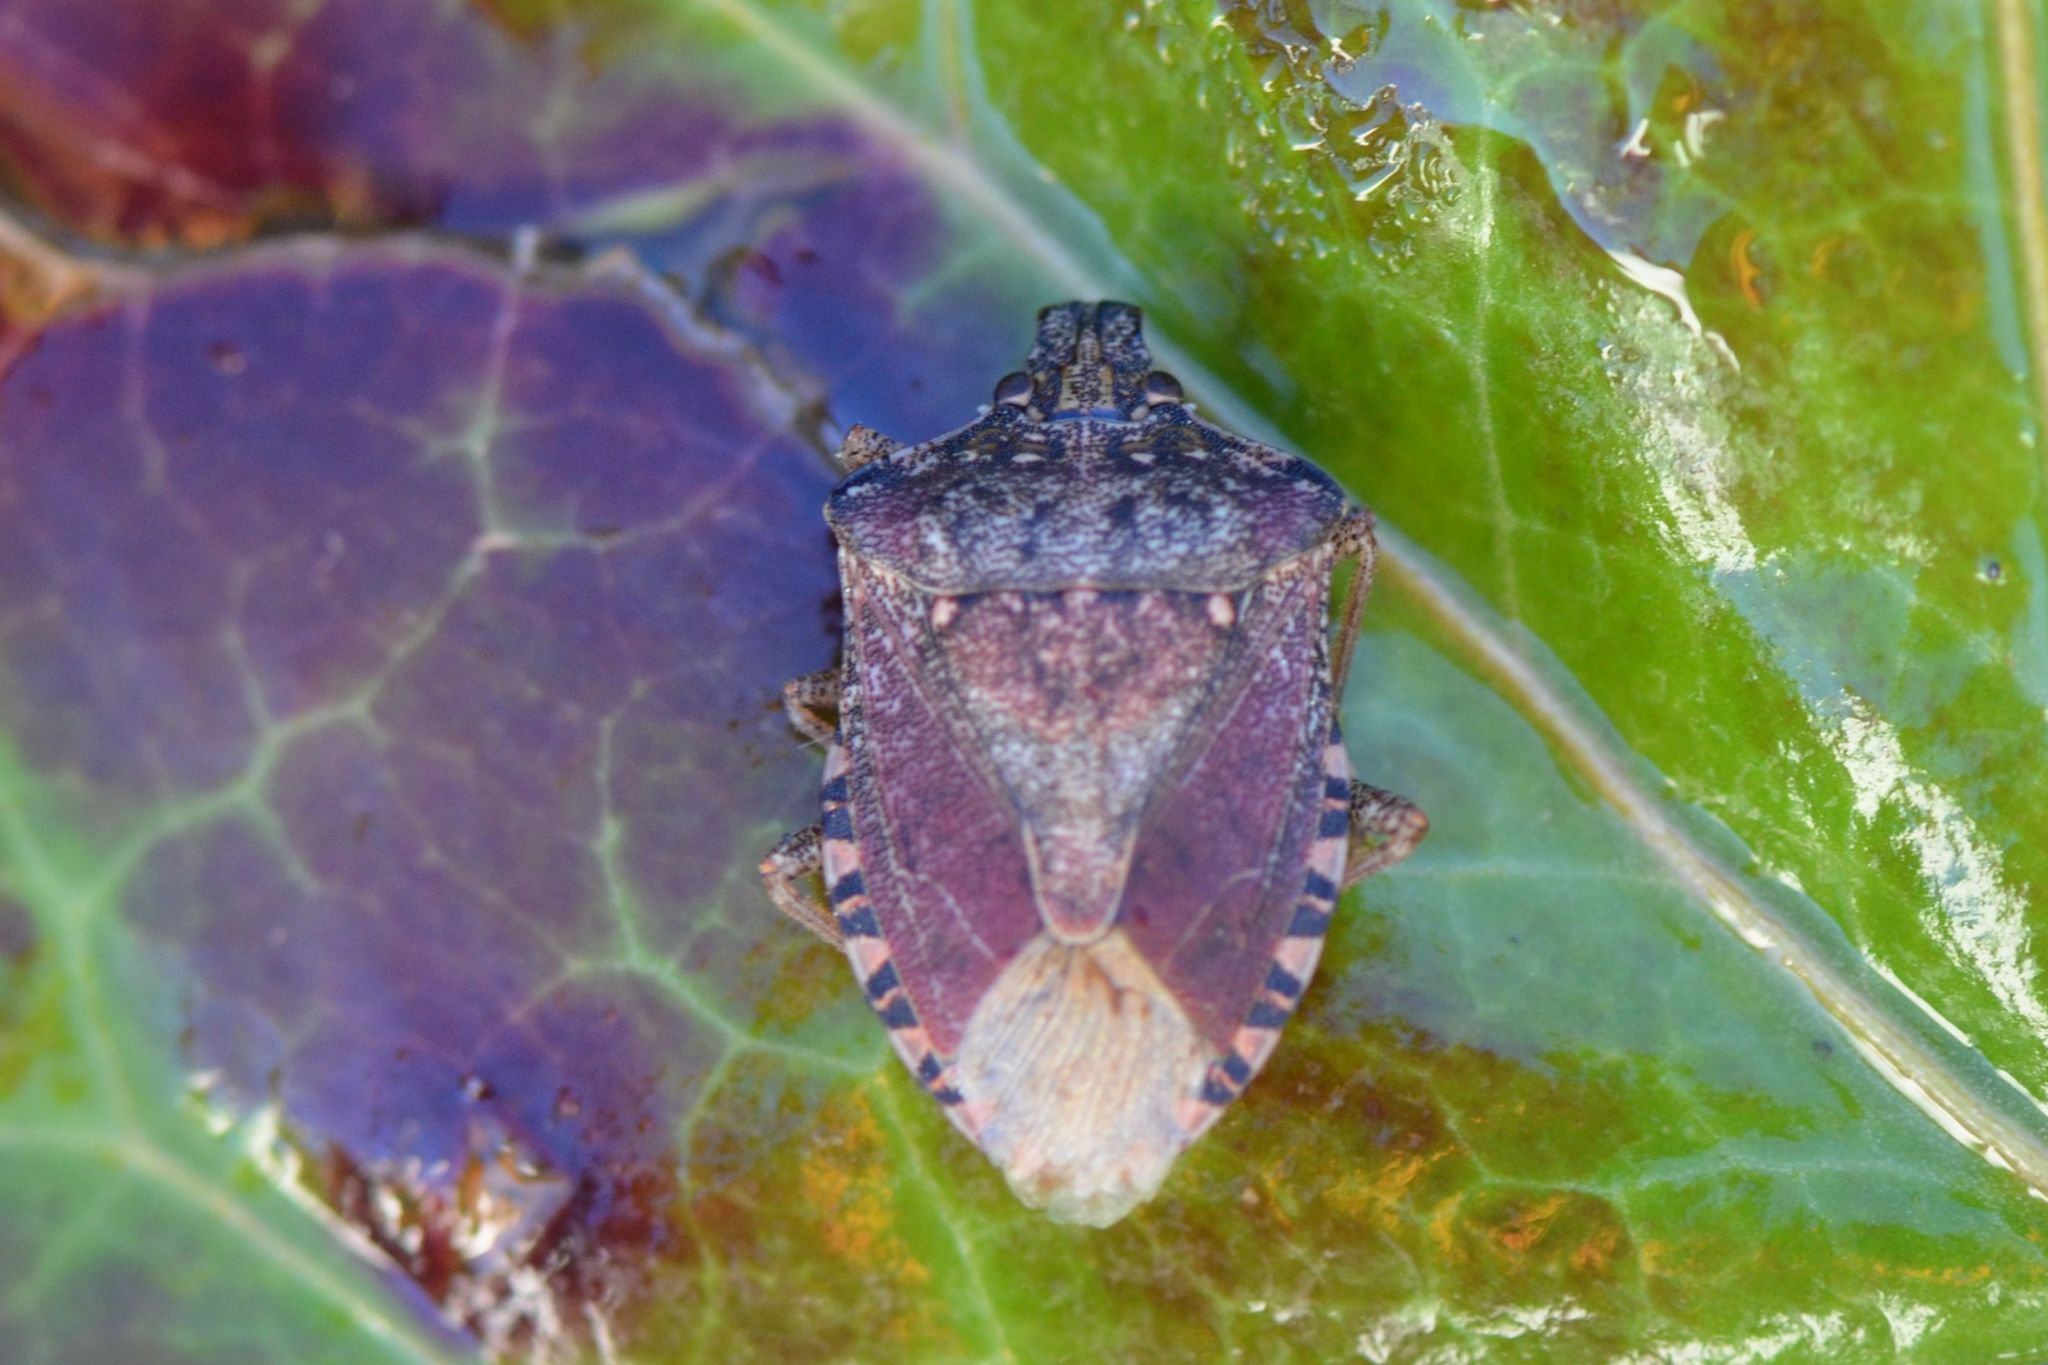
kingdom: Animalia
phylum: Arthropoda
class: Insecta
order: Hemiptera
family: Pentatomidae
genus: Halyomorpha
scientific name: Halyomorpha halys
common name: Brown marmorated stink bug
